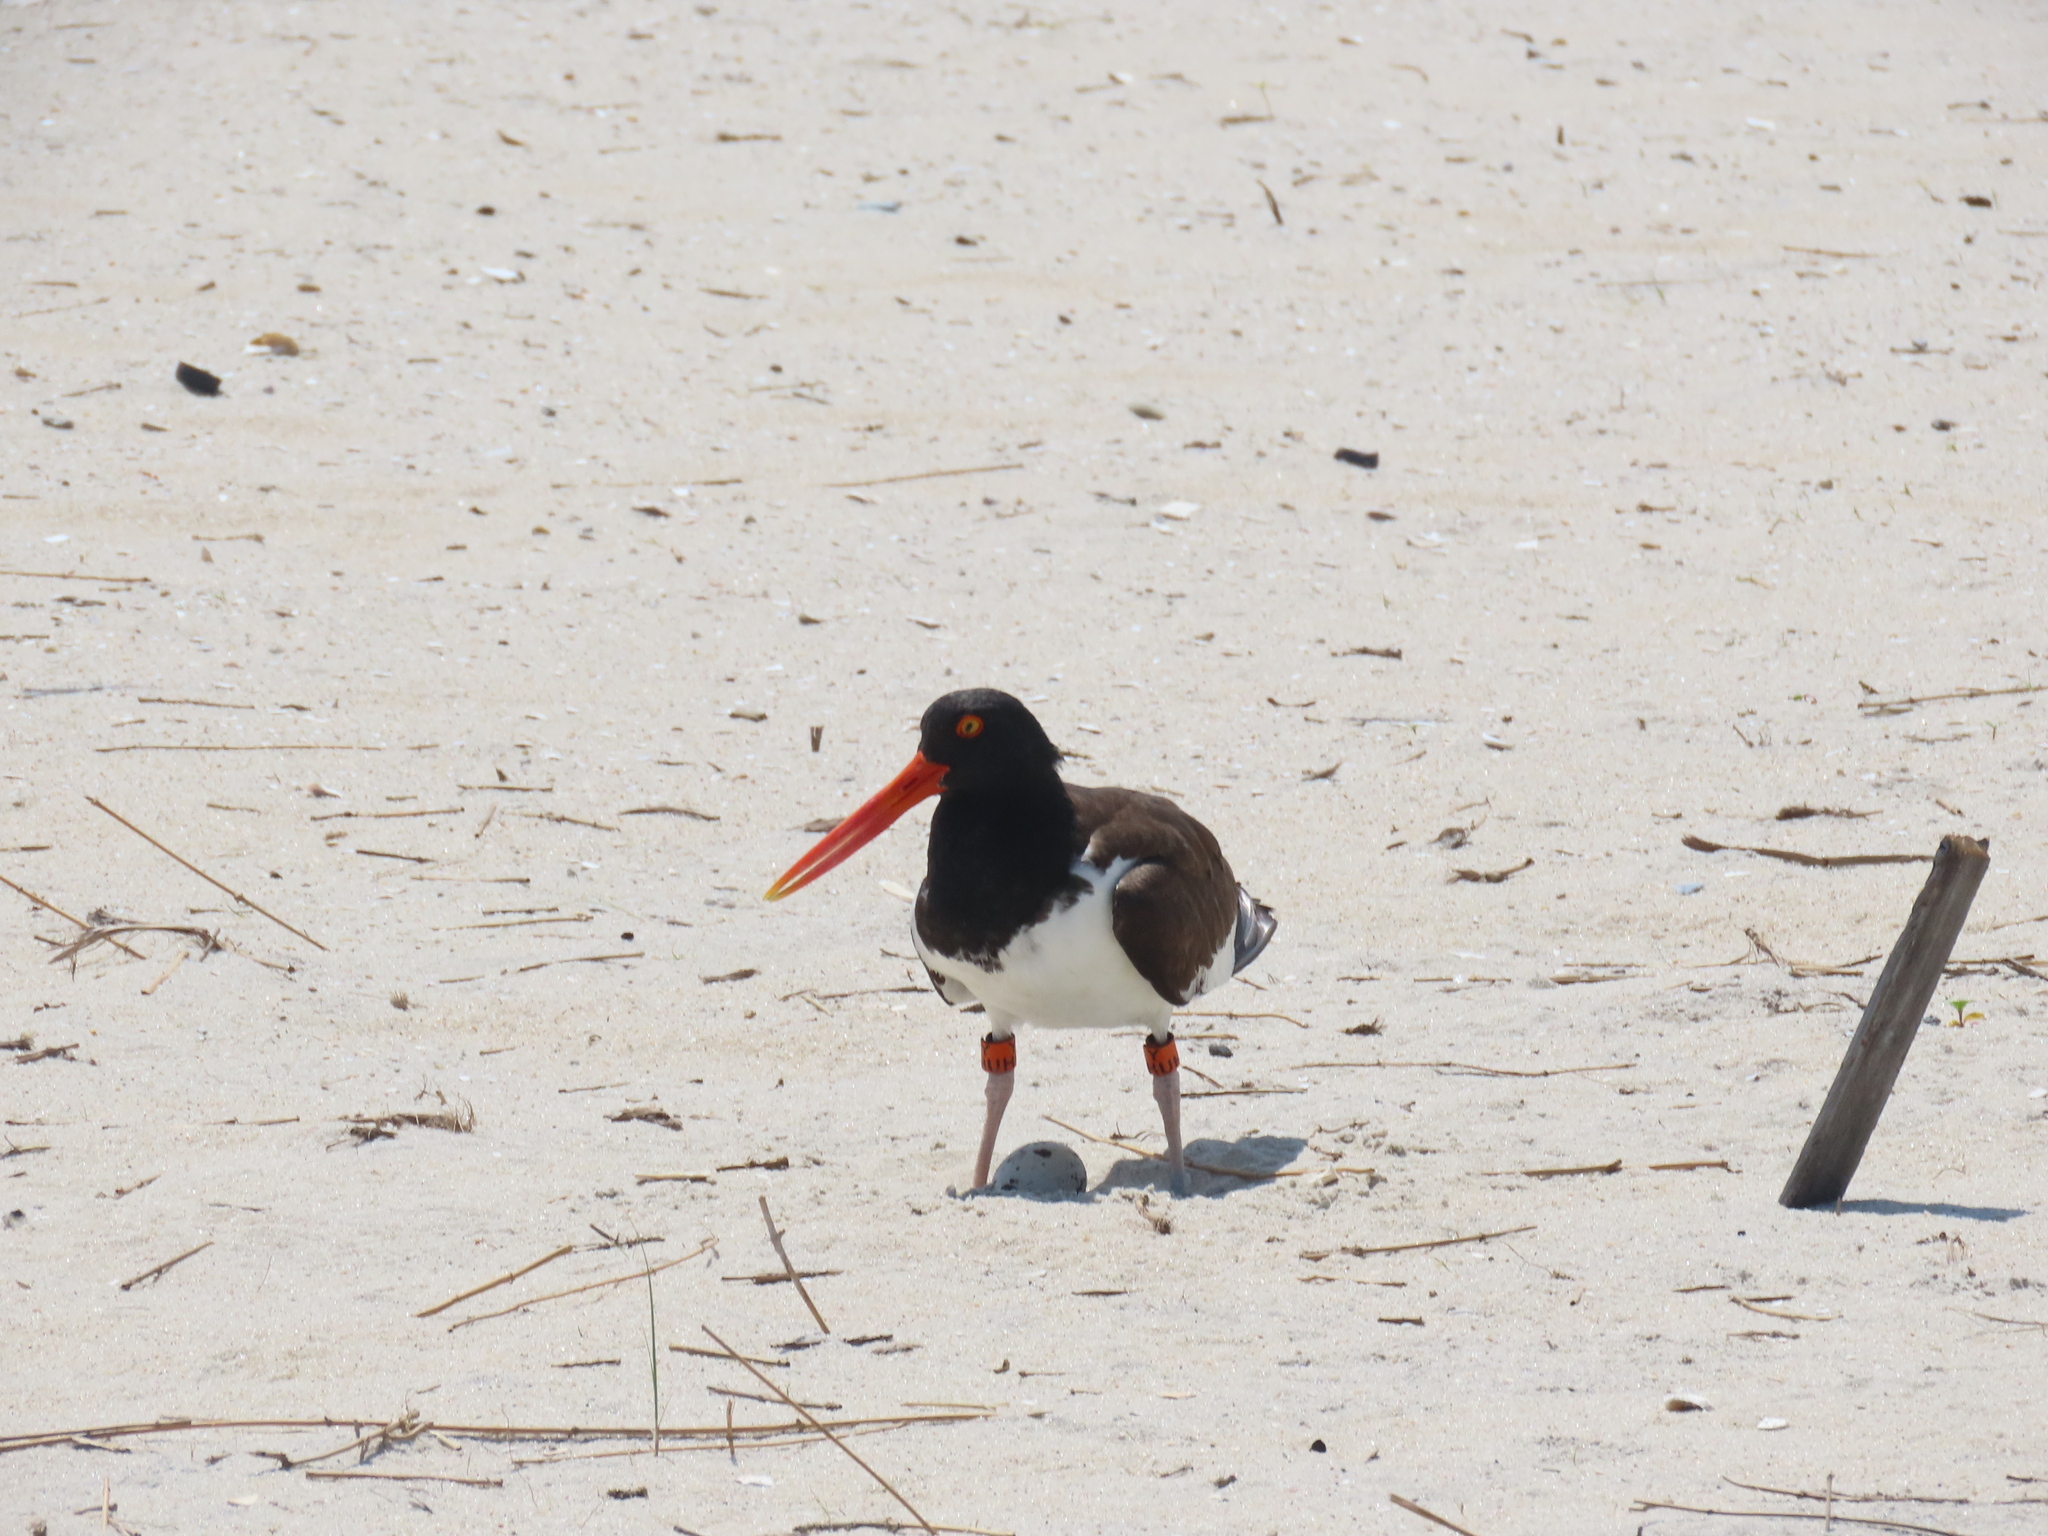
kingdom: Animalia
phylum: Chordata
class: Aves
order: Charadriiformes
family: Haematopodidae
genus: Haematopus
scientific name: Haematopus palliatus
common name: American oystercatcher
